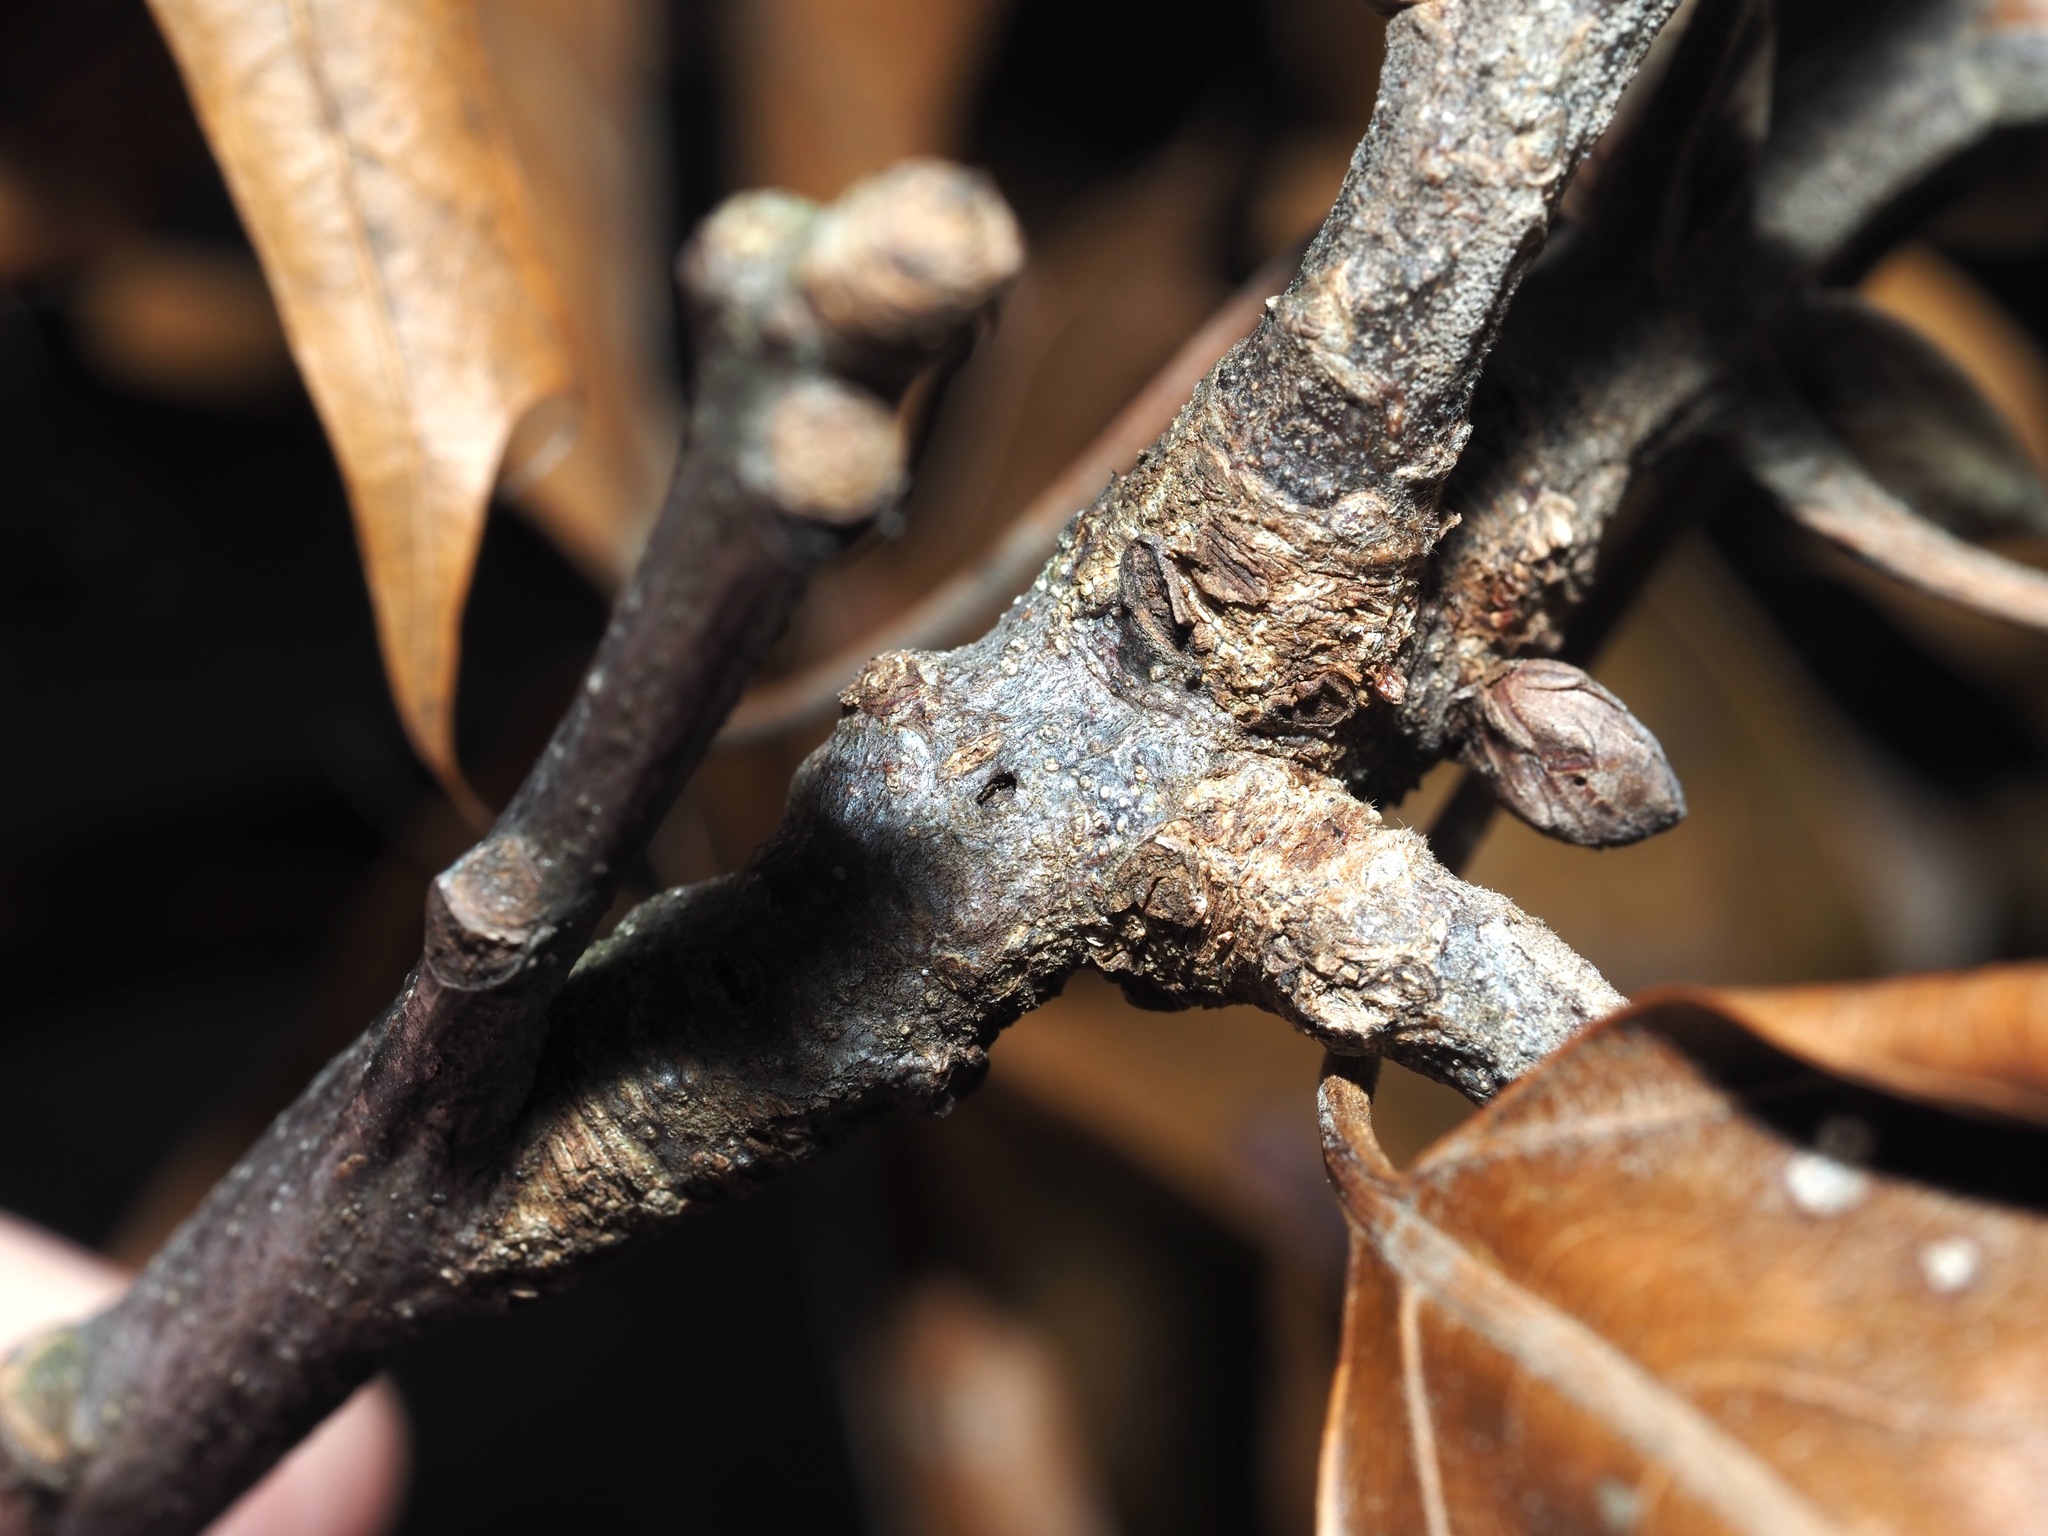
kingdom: Animalia
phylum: Arthropoda
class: Insecta
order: Hymenoptera
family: Cynipidae
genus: Callirhytis
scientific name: Callirhytis
